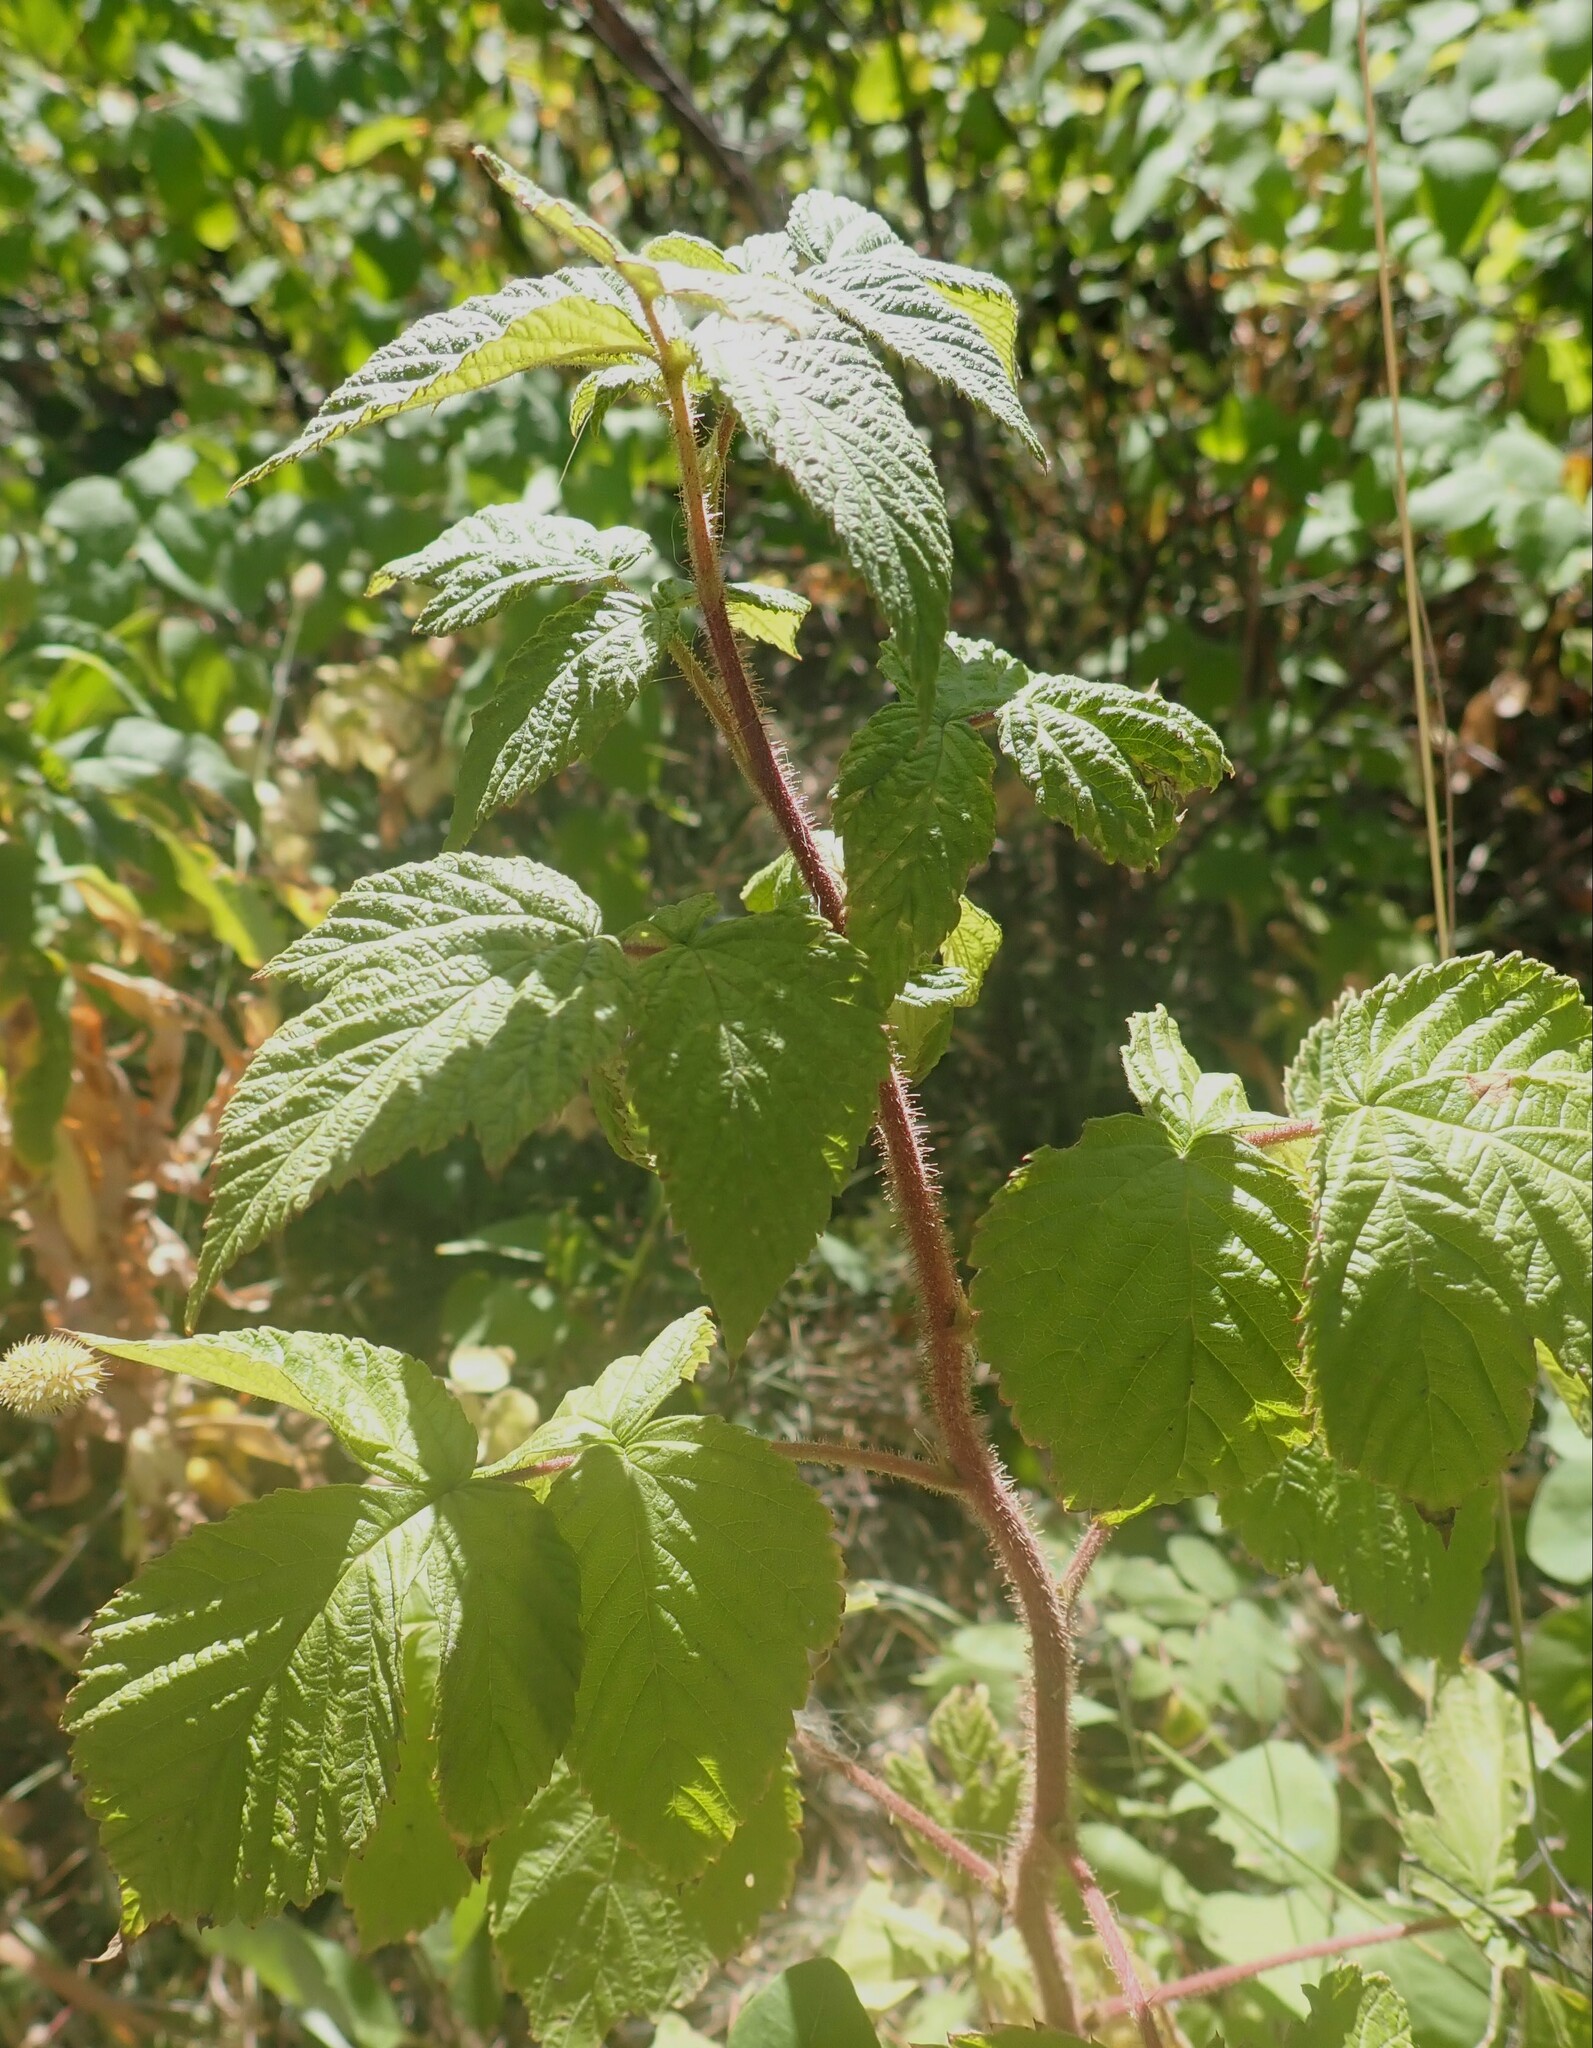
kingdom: Plantae
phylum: Tracheophyta
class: Magnoliopsida
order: Rosales
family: Rosaceae
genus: Rubus
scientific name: Rubus idaeus
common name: Raspberry
